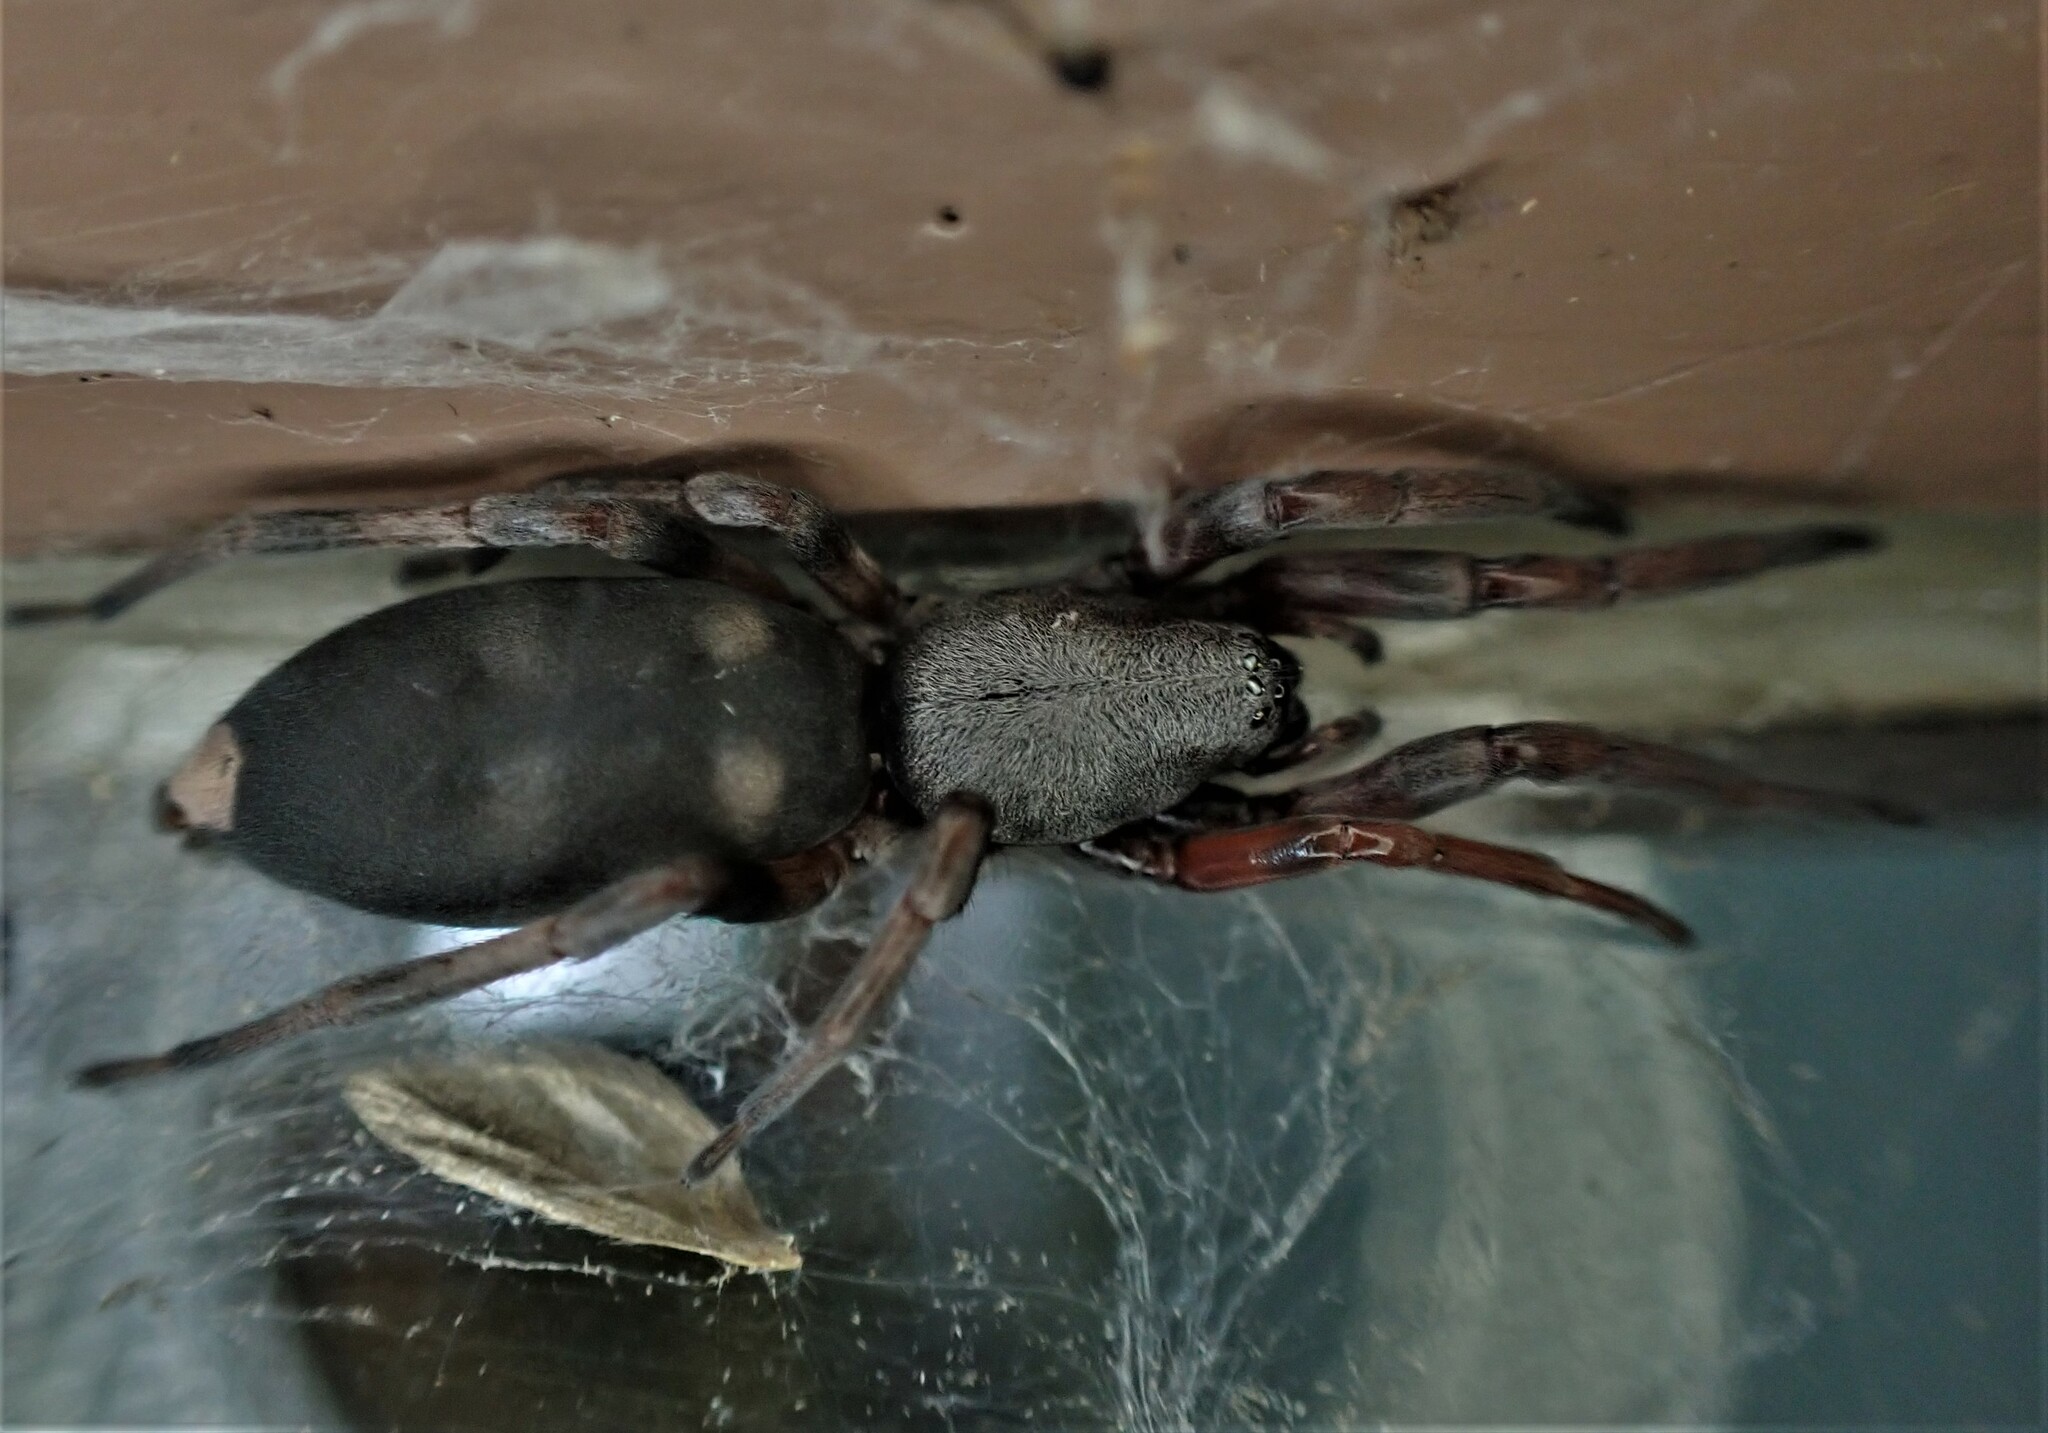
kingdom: Animalia
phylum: Arthropoda
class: Arachnida
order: Araneae
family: Lamponidae
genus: Lampona
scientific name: Lampona murina
